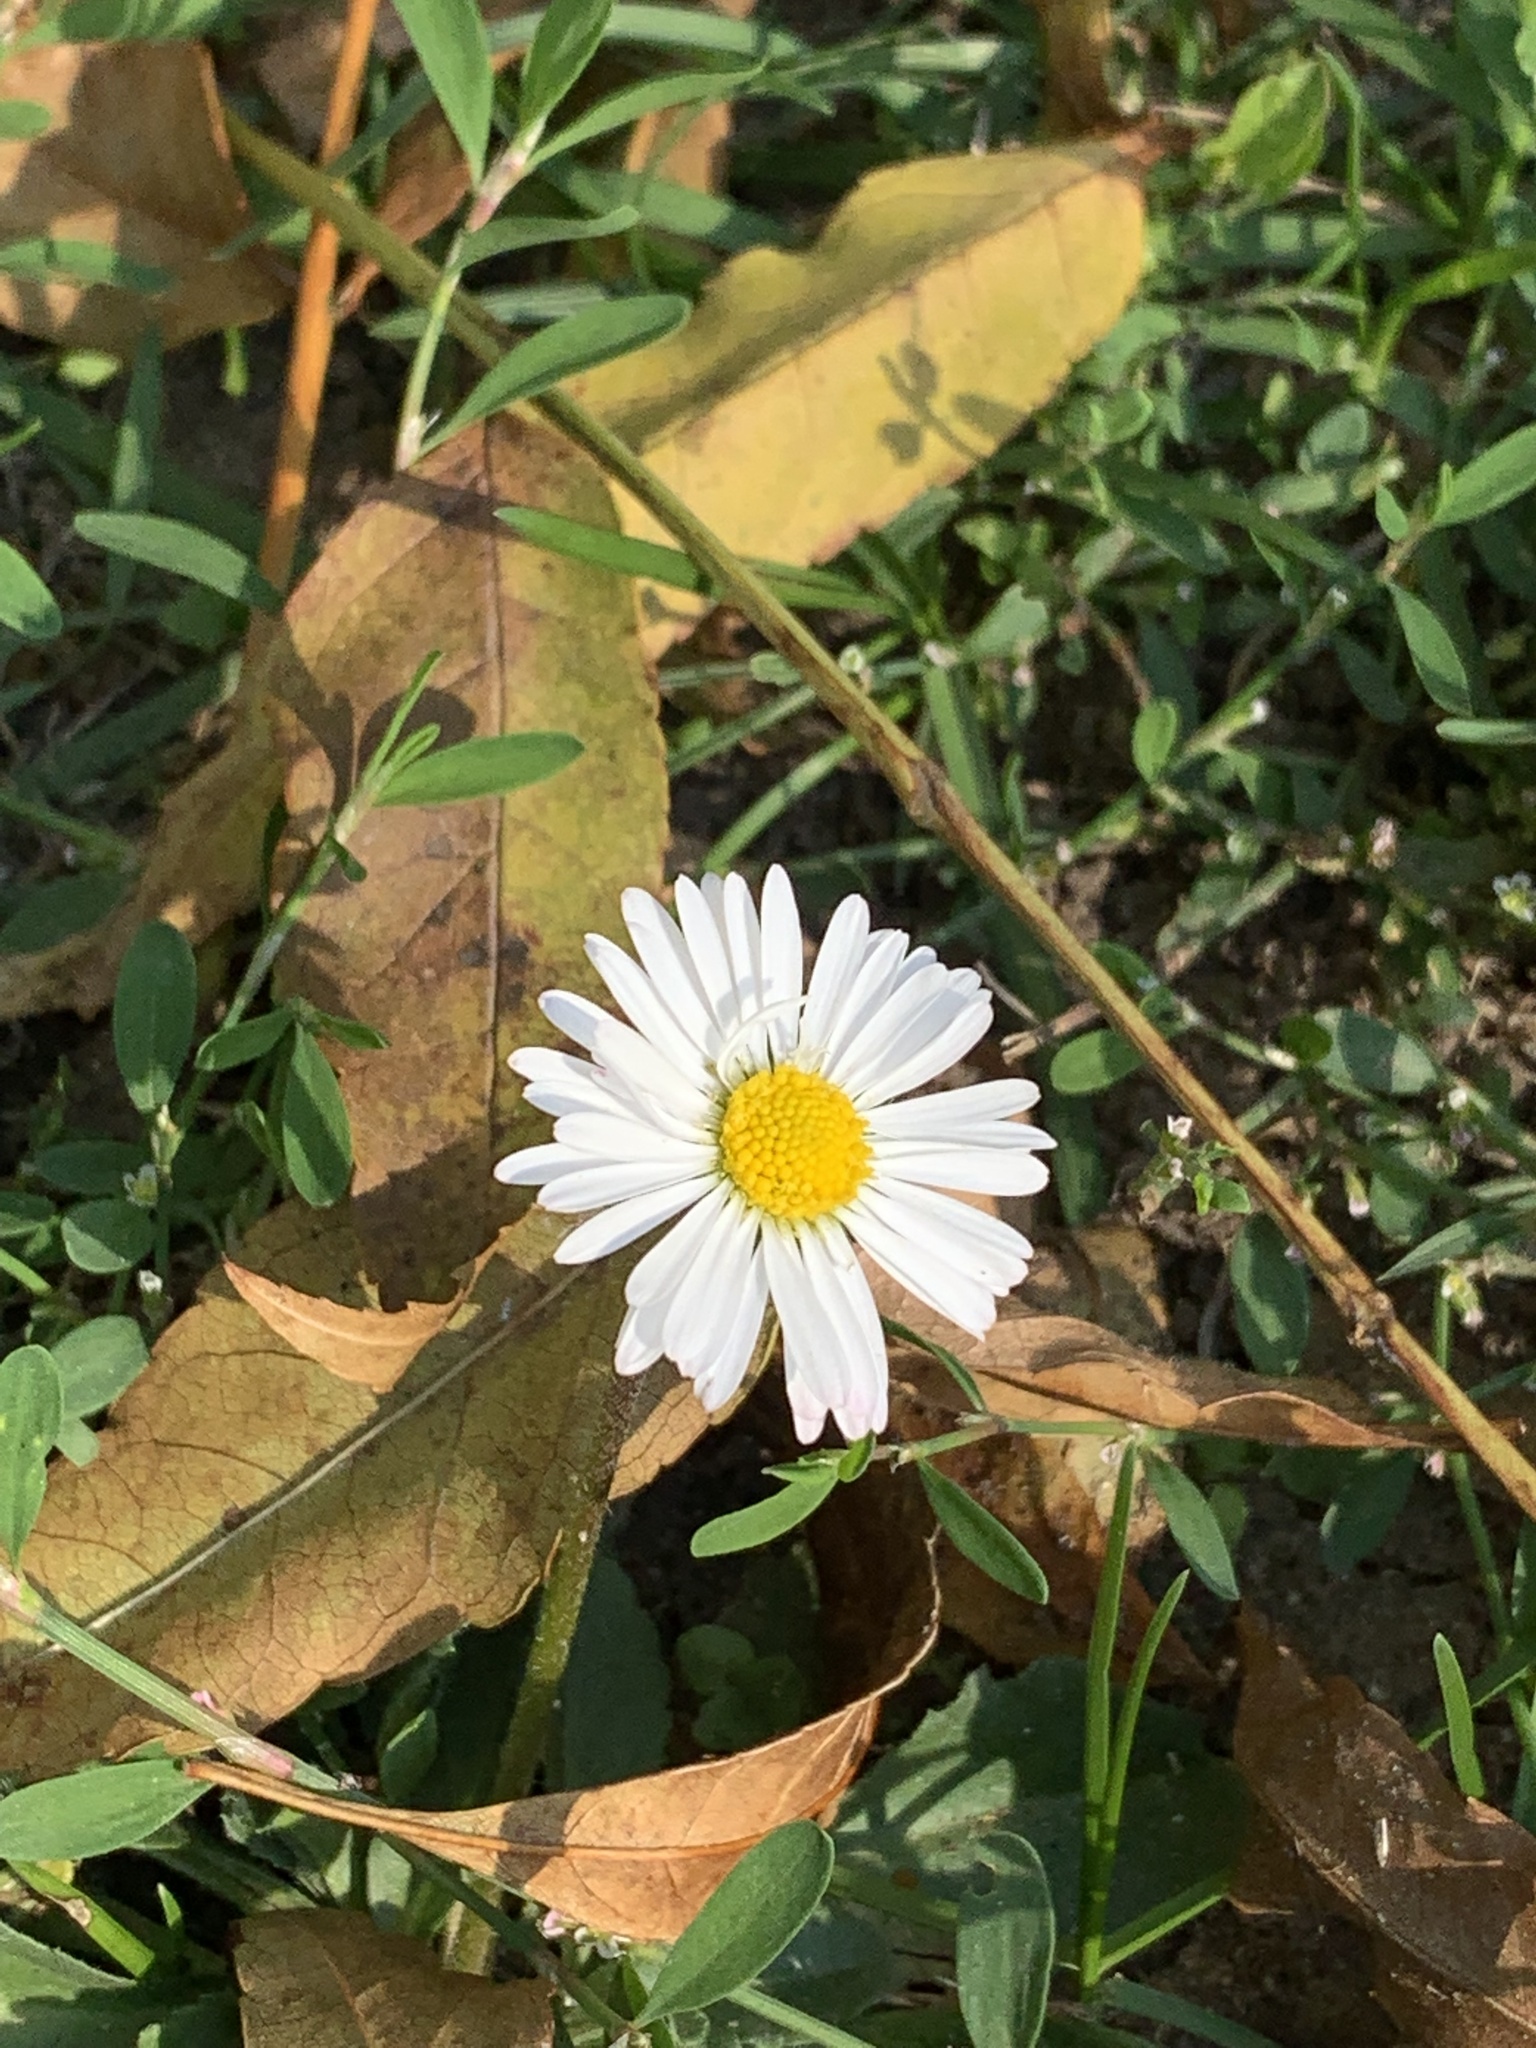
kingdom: Plantae
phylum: Tracheophyta
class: Magnoliopsida
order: Asterales
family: Asteraceae
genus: Bellis
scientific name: Bellis perennis
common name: Lawndaisy
